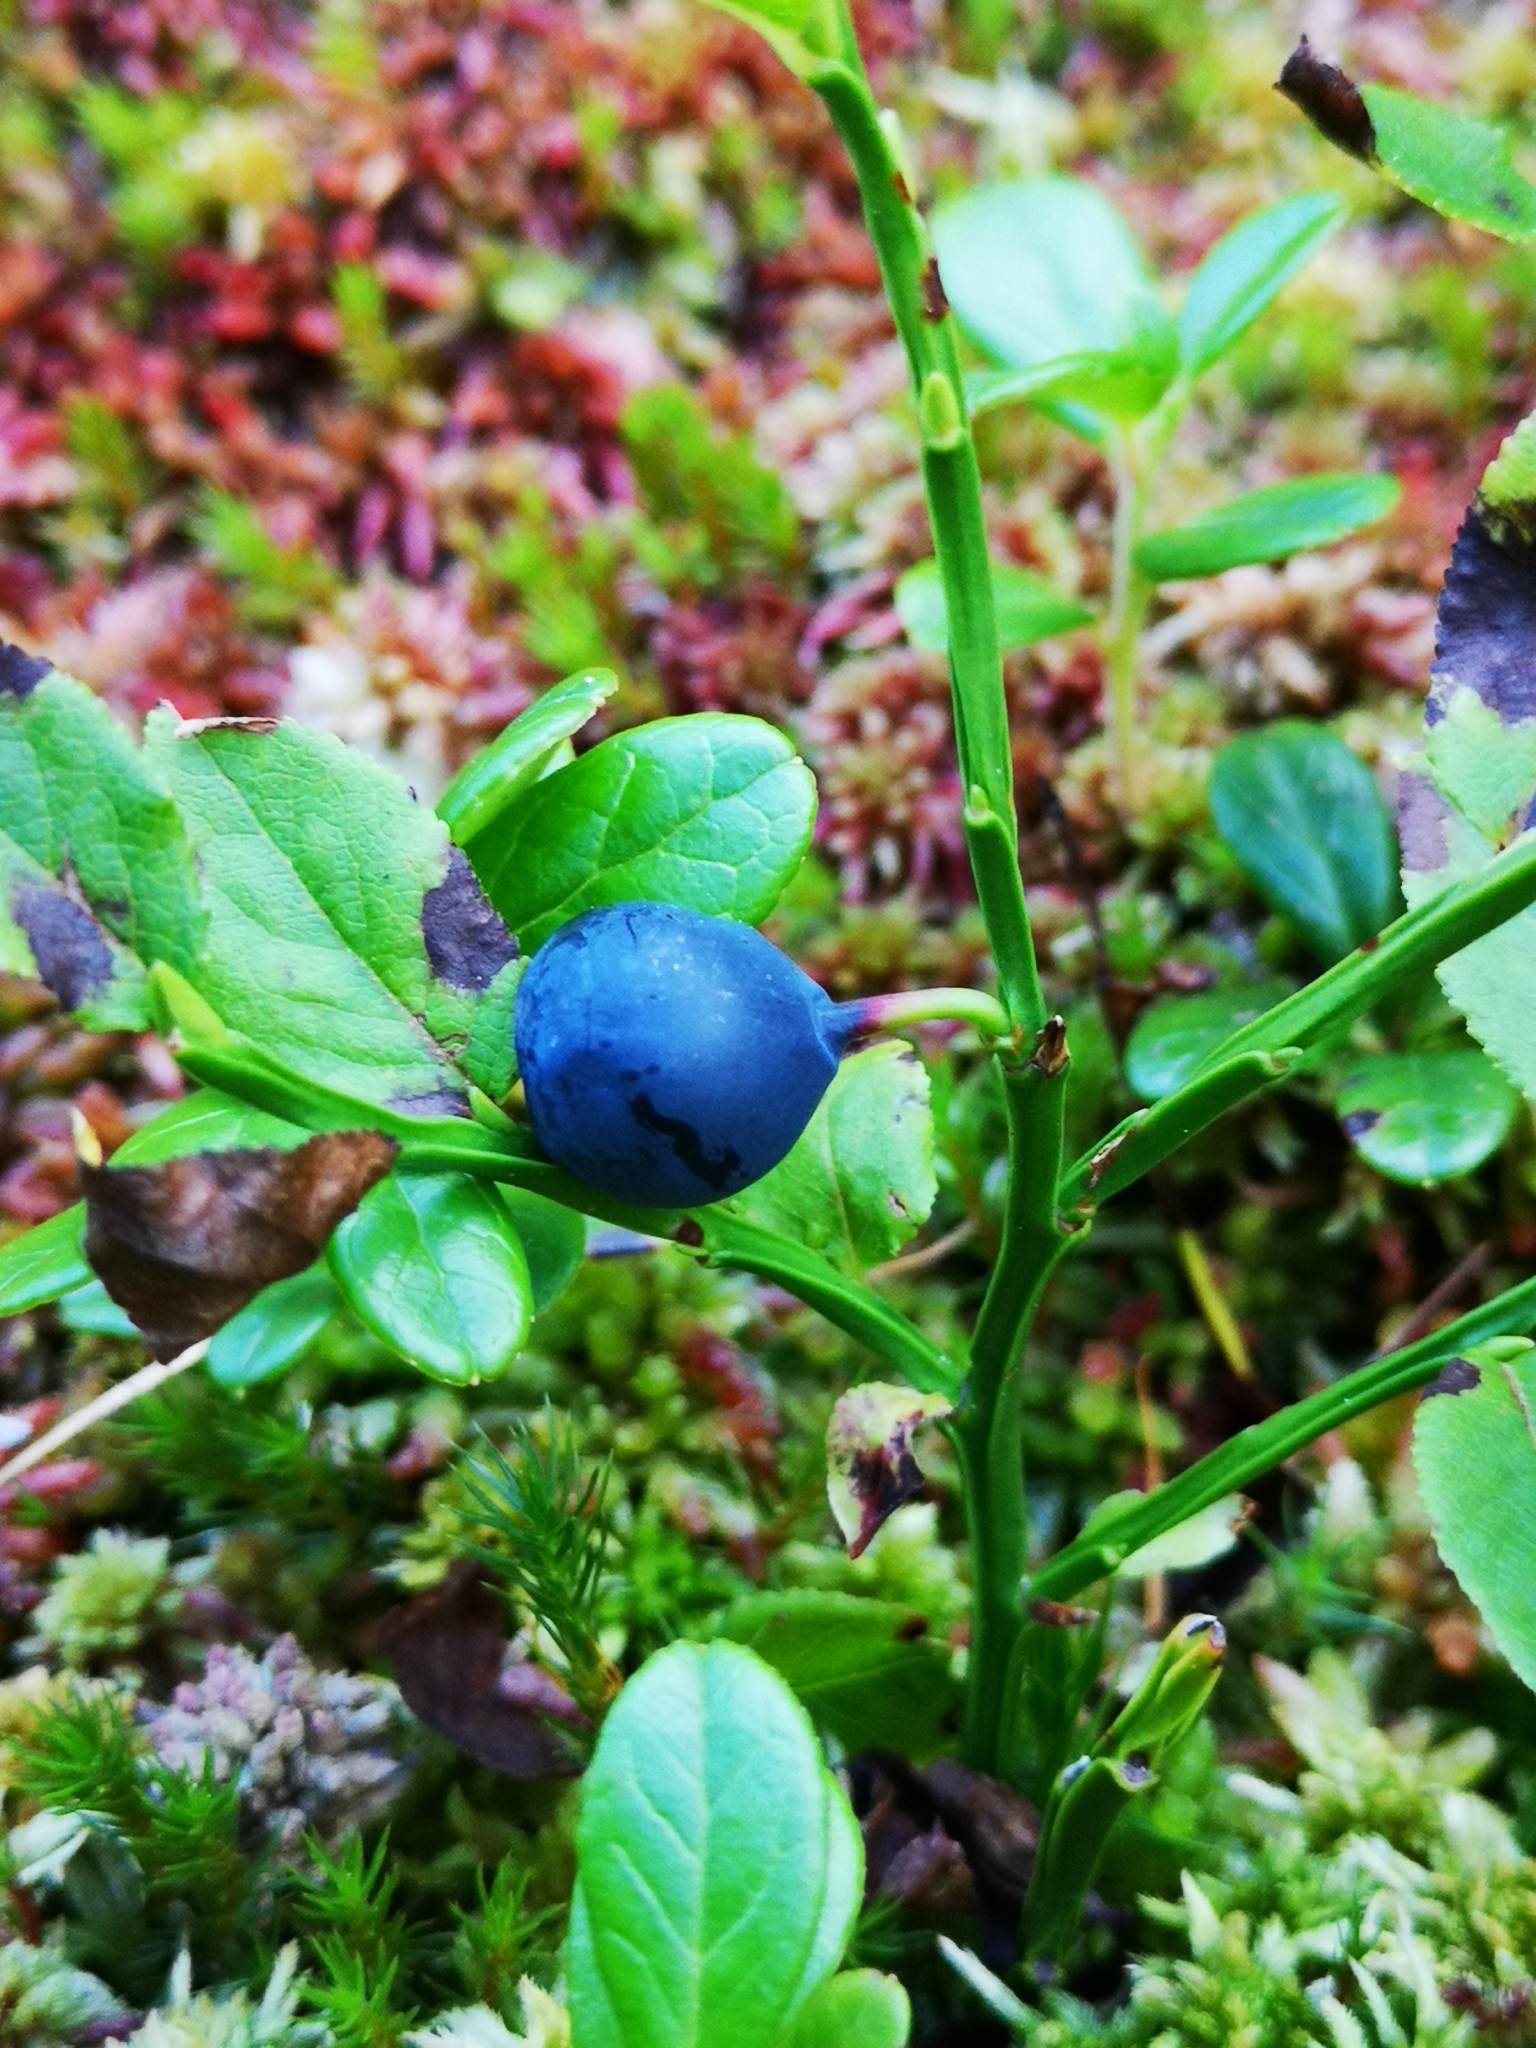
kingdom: Plantae
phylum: Tracheophyta
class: Magnoliopsida
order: Ericales
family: Ericaceae
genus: Vaccinium
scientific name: Vaccinium myrtillus
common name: Bilberry
